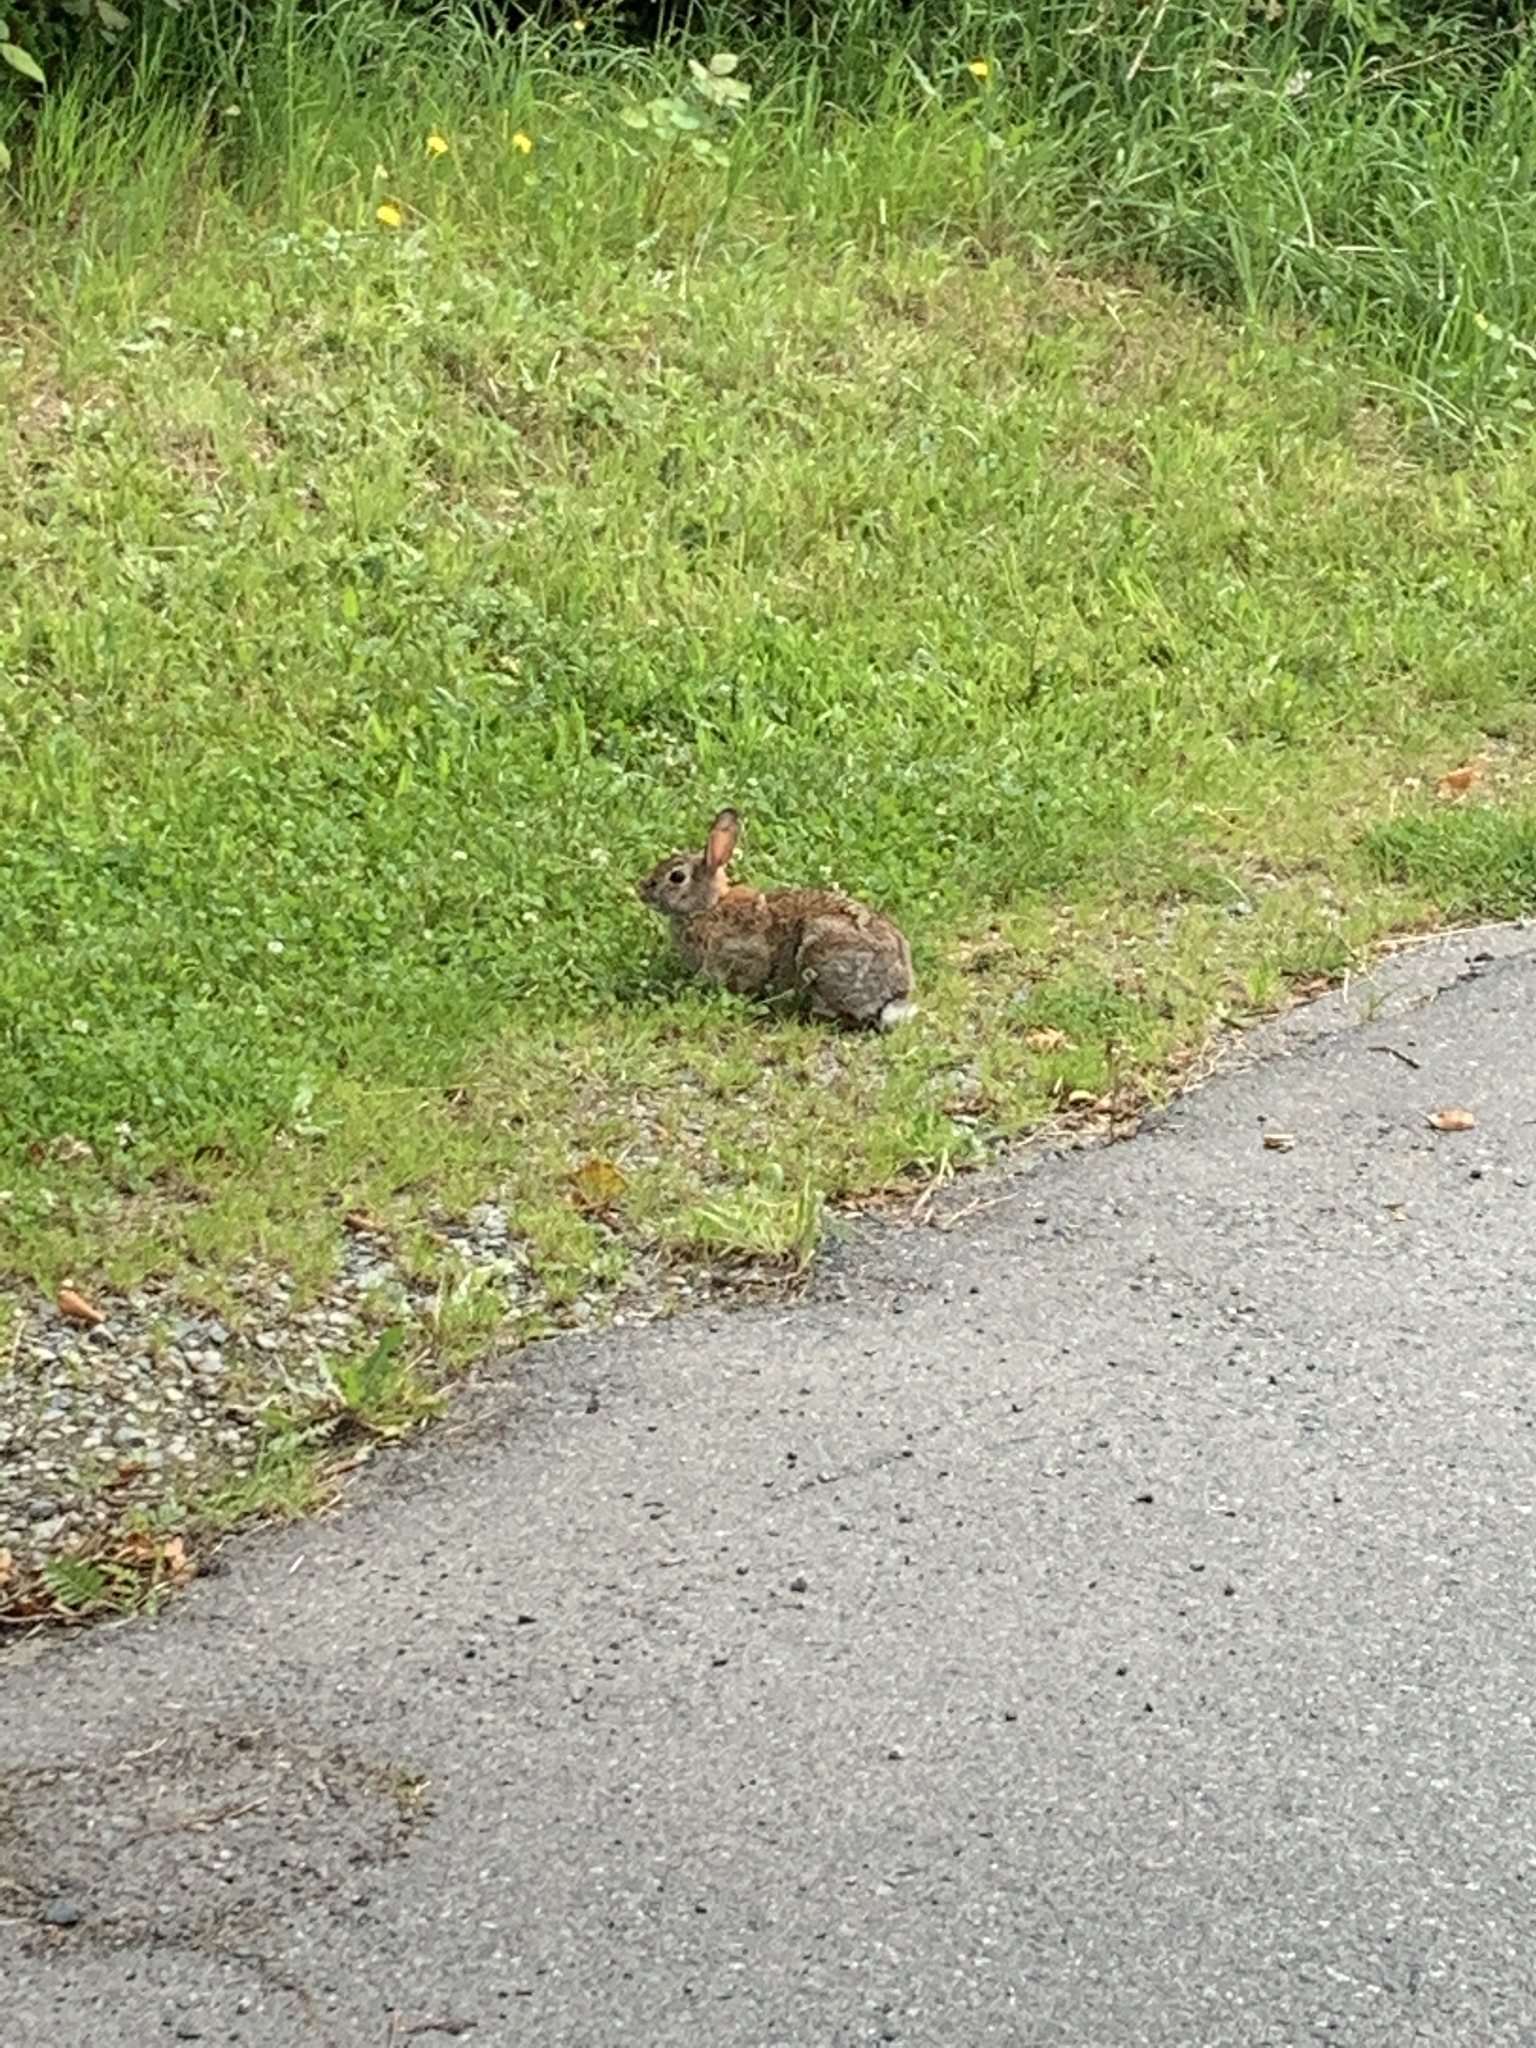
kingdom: Animalia
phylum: Chordata
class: Mammalia
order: Lagomorpha
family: Leporidae
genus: Sylvilagus
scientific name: Sylvilagus floridanus
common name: Eastern cottontail
